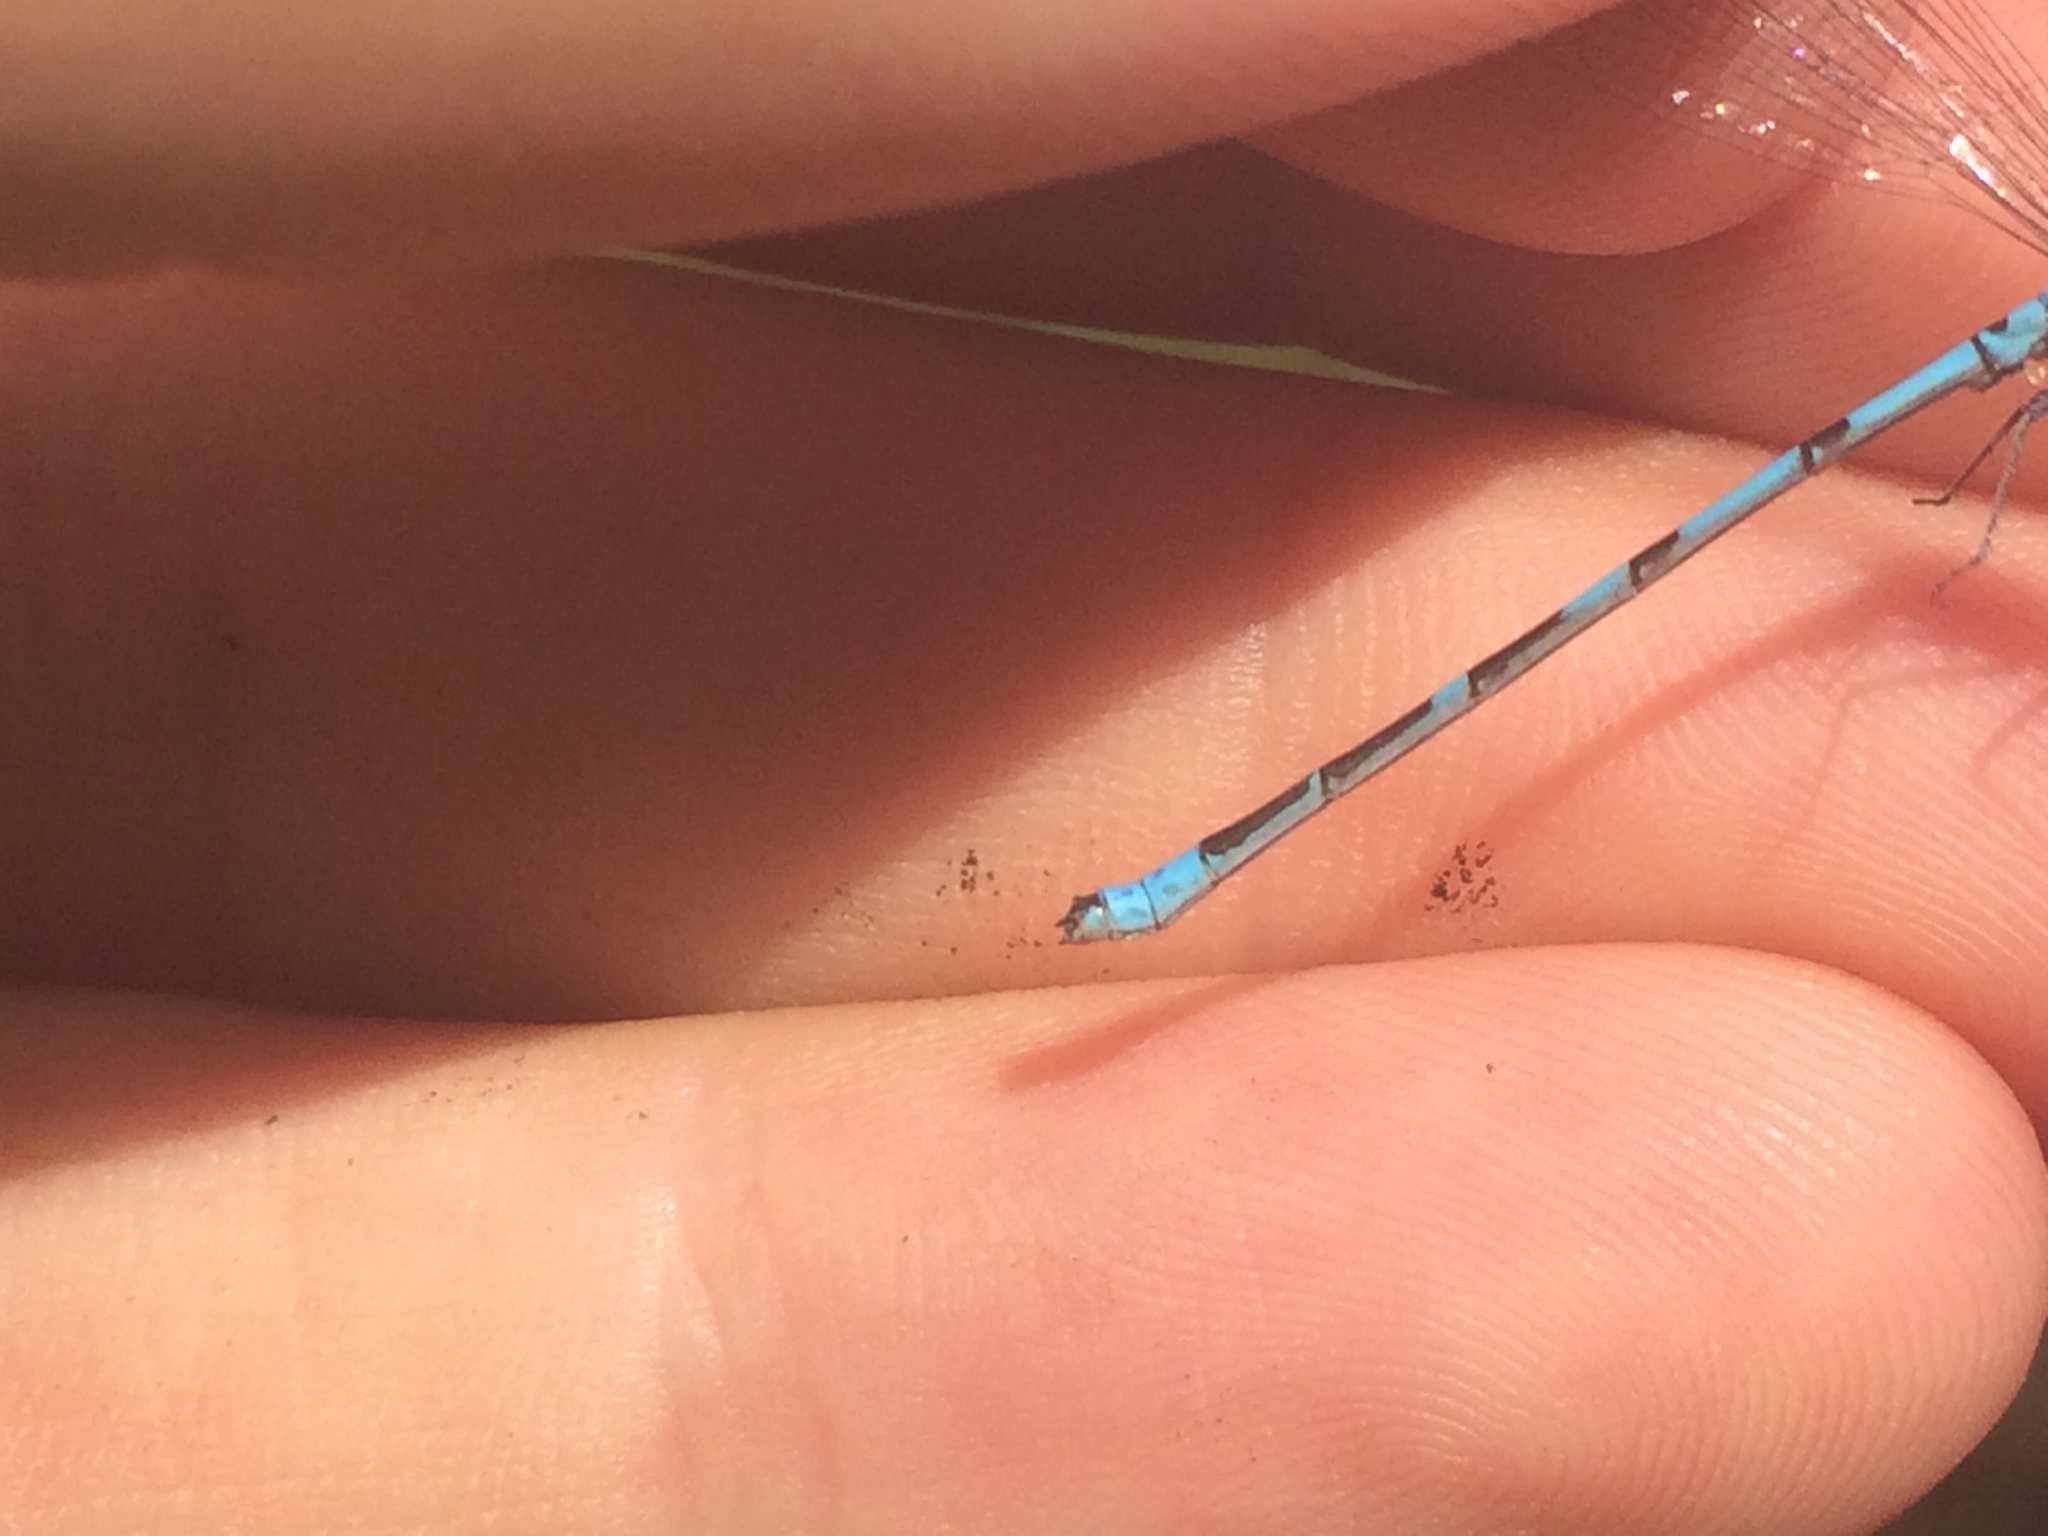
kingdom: Animalia
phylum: Arthropoda
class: Insecta
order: Odonata
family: Coenagrionidae
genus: Enallagma
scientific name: Enallagma hageni
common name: Hagen's bluet
